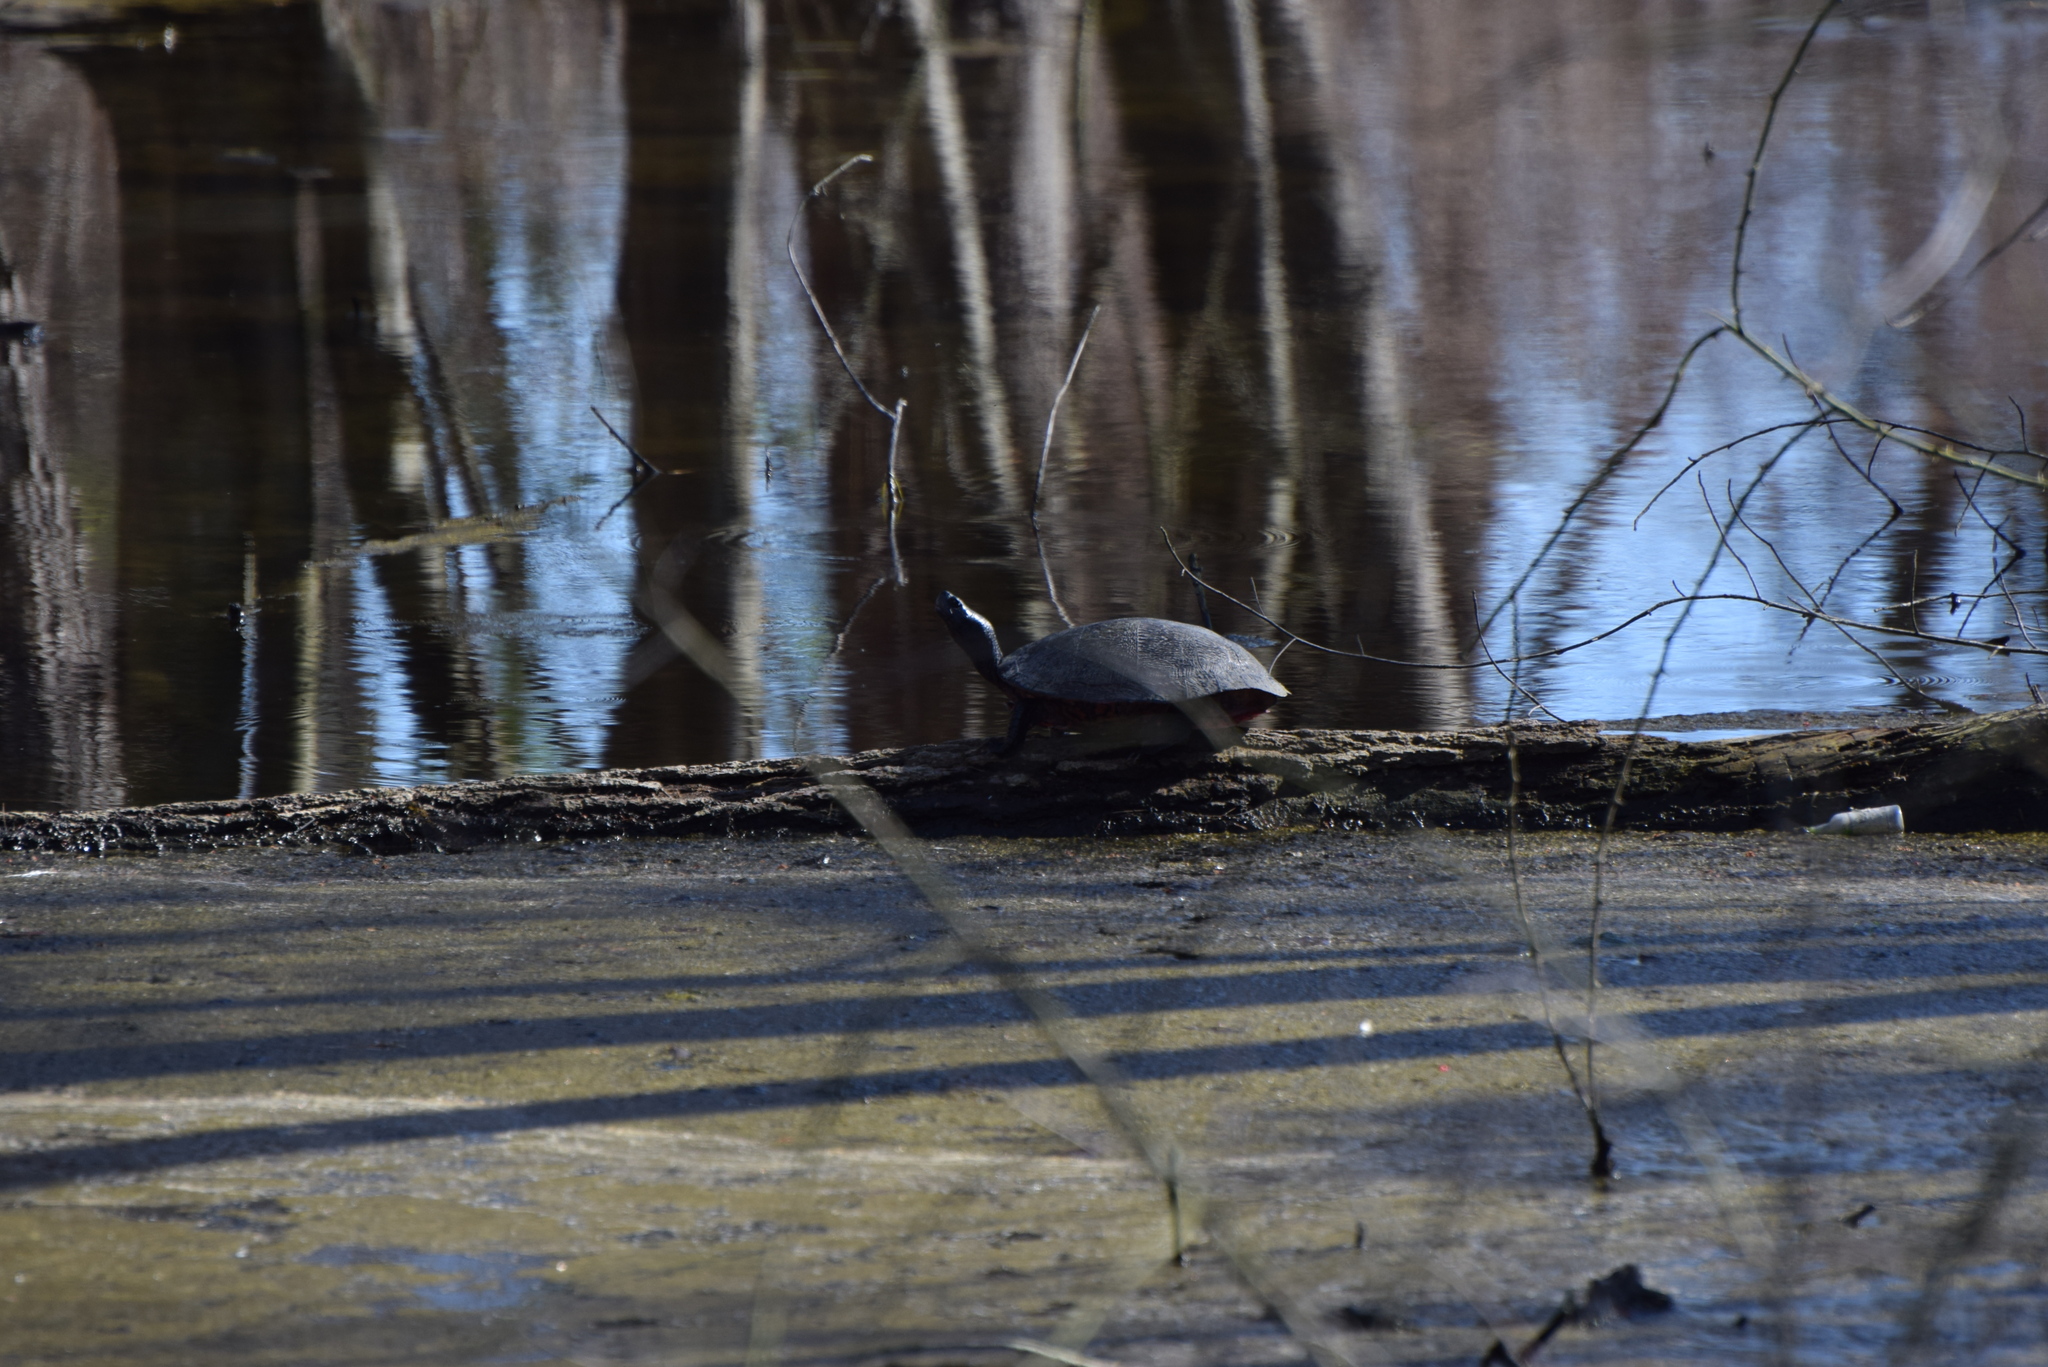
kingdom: Animalia
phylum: Chordata
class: Testudines
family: Emydidae
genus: Pseudemys
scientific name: Pseudemys rubriventris
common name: American red-bellied turtle
